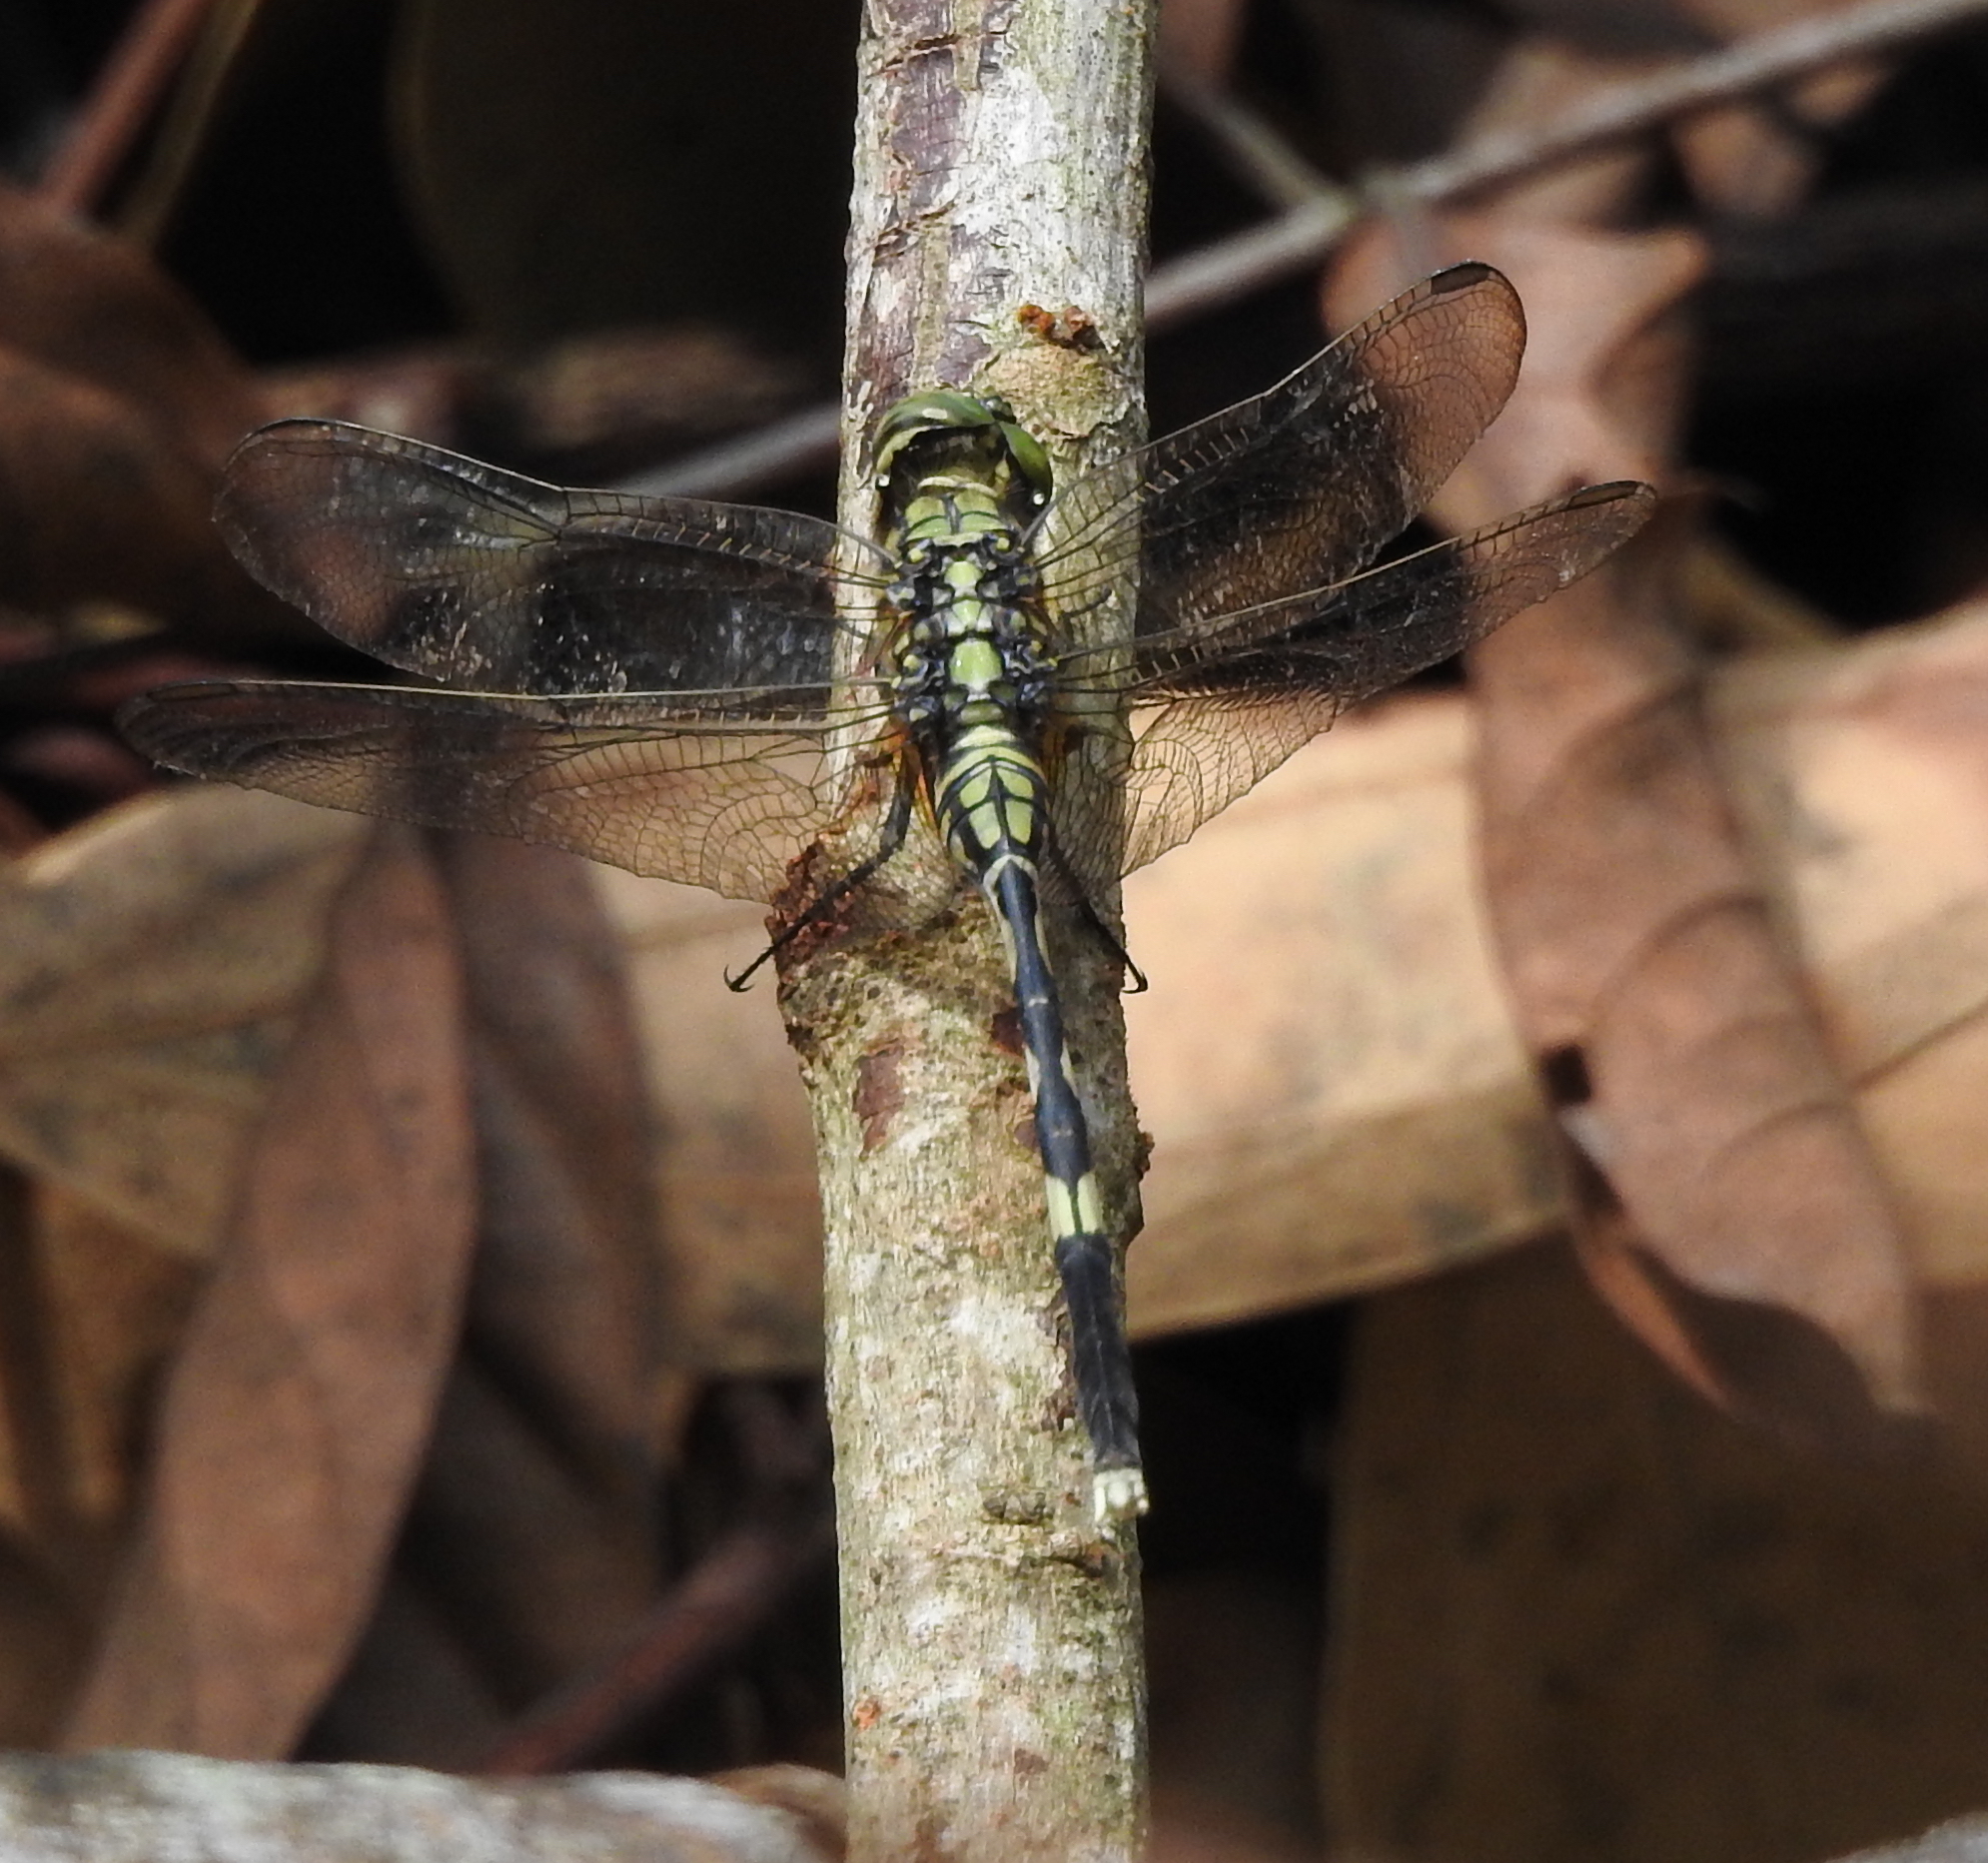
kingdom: Animalia
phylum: Arthropoda
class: Insecta
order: Odonata
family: Libellulidae
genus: Orthetrum
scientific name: Orthetrum sabina
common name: Slender skimmer
